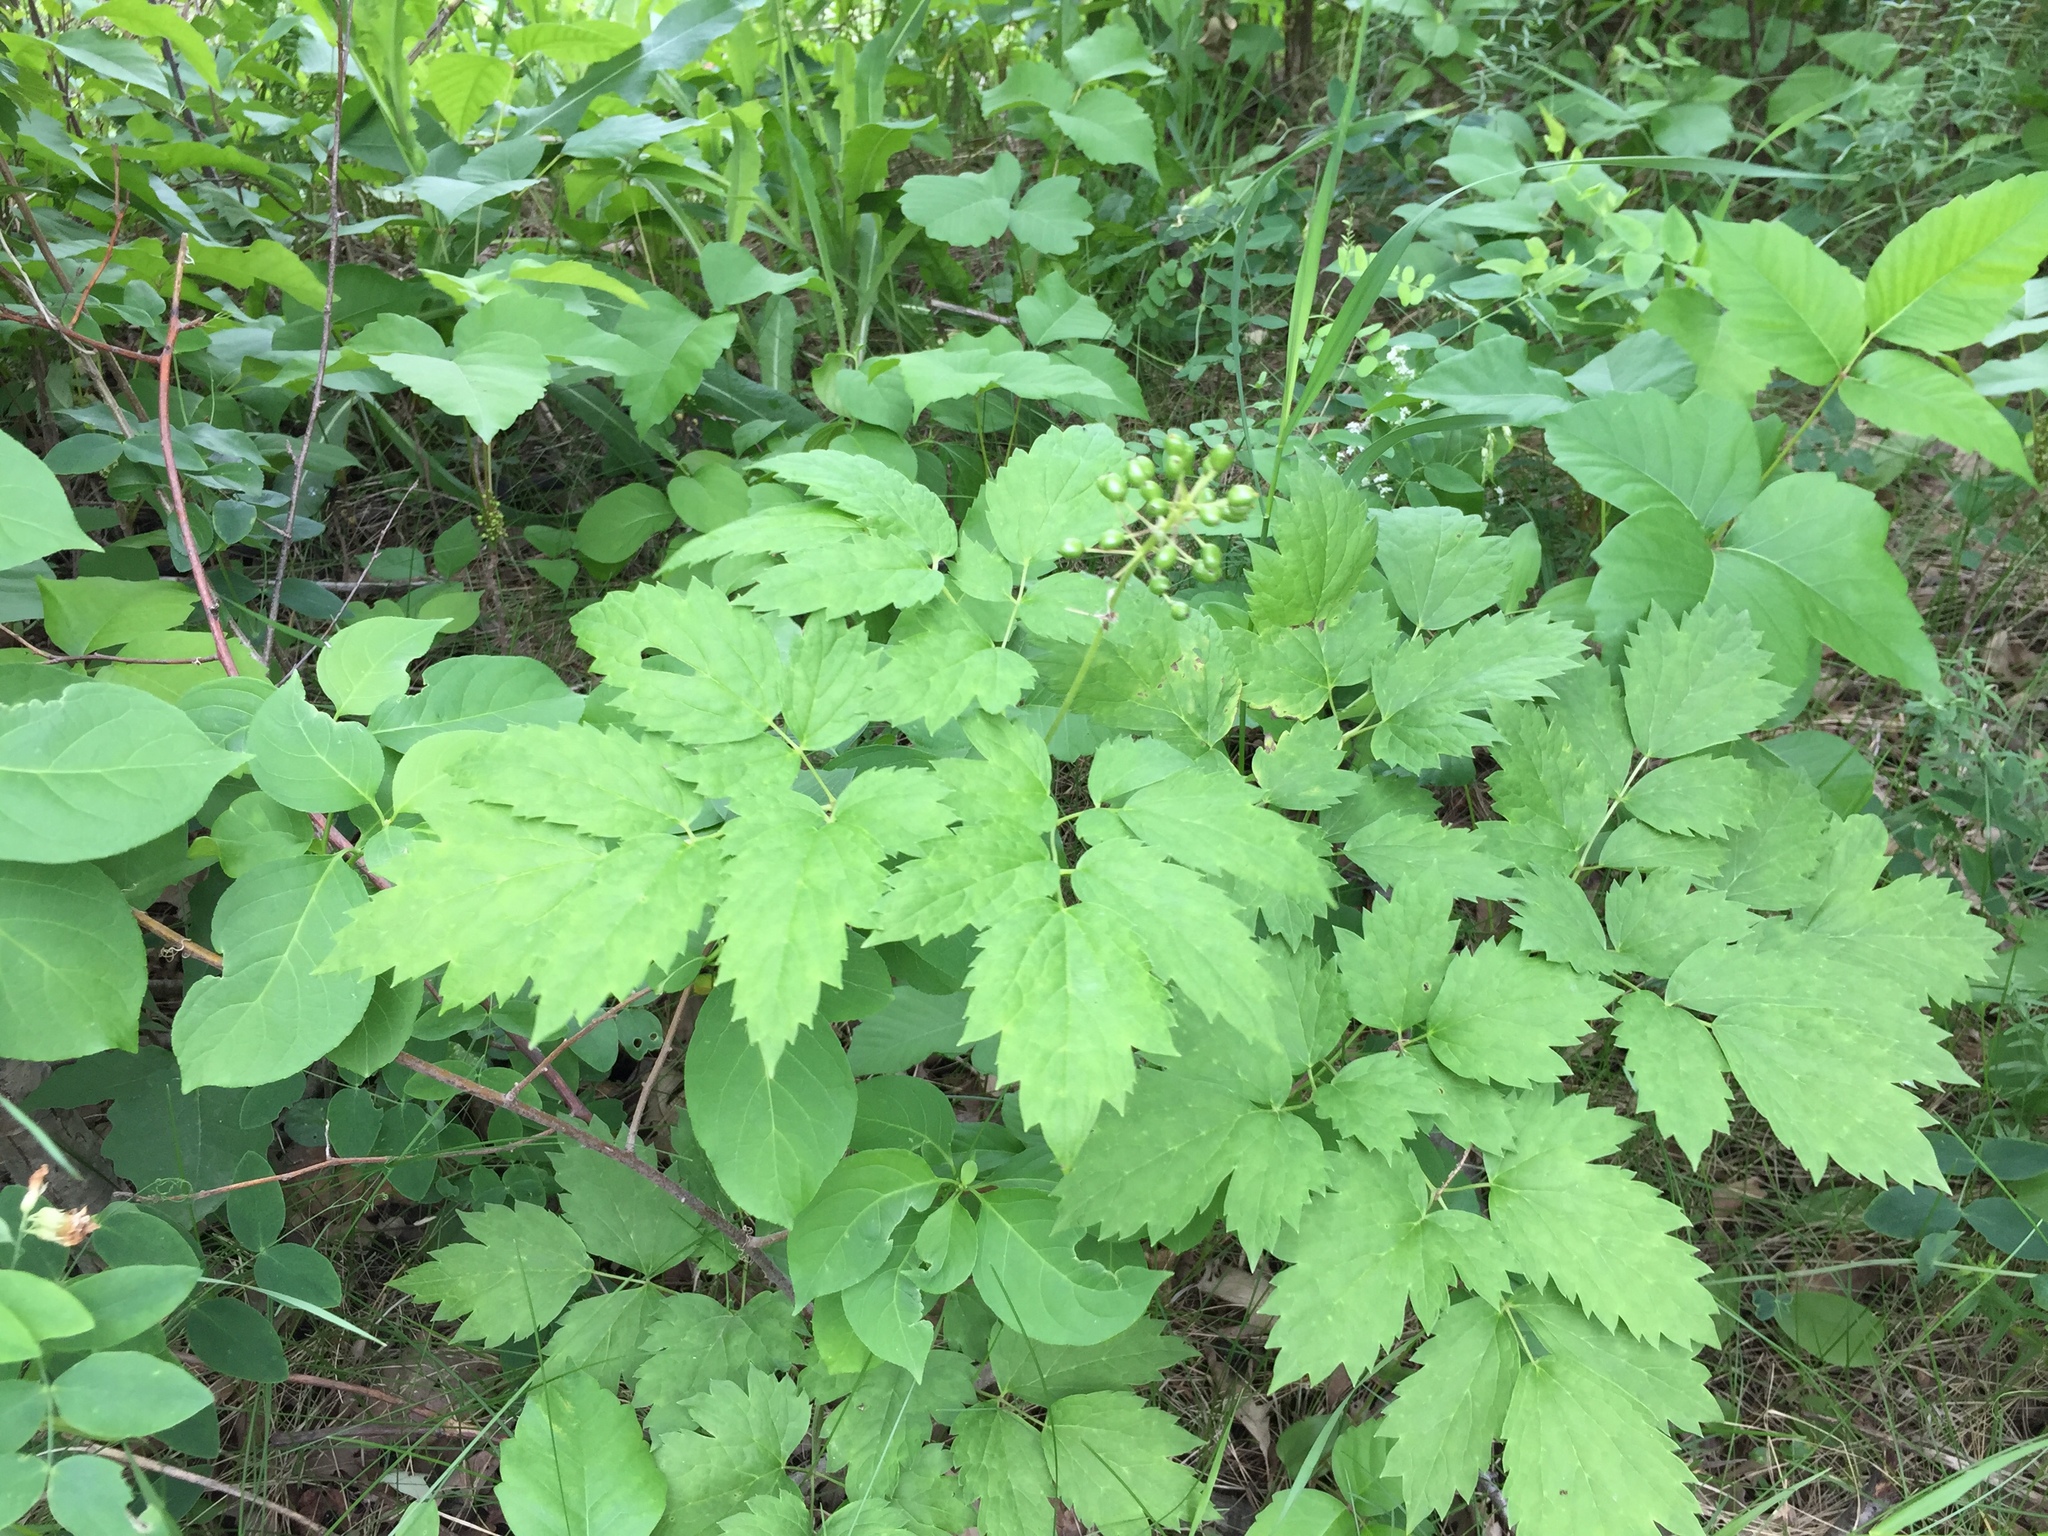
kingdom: Plantae
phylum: Tracheophyta
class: Magnoliopsida
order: Ranunculales
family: Ranunculaceae
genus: Actaea
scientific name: Actaea rubra
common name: Red baneberry
